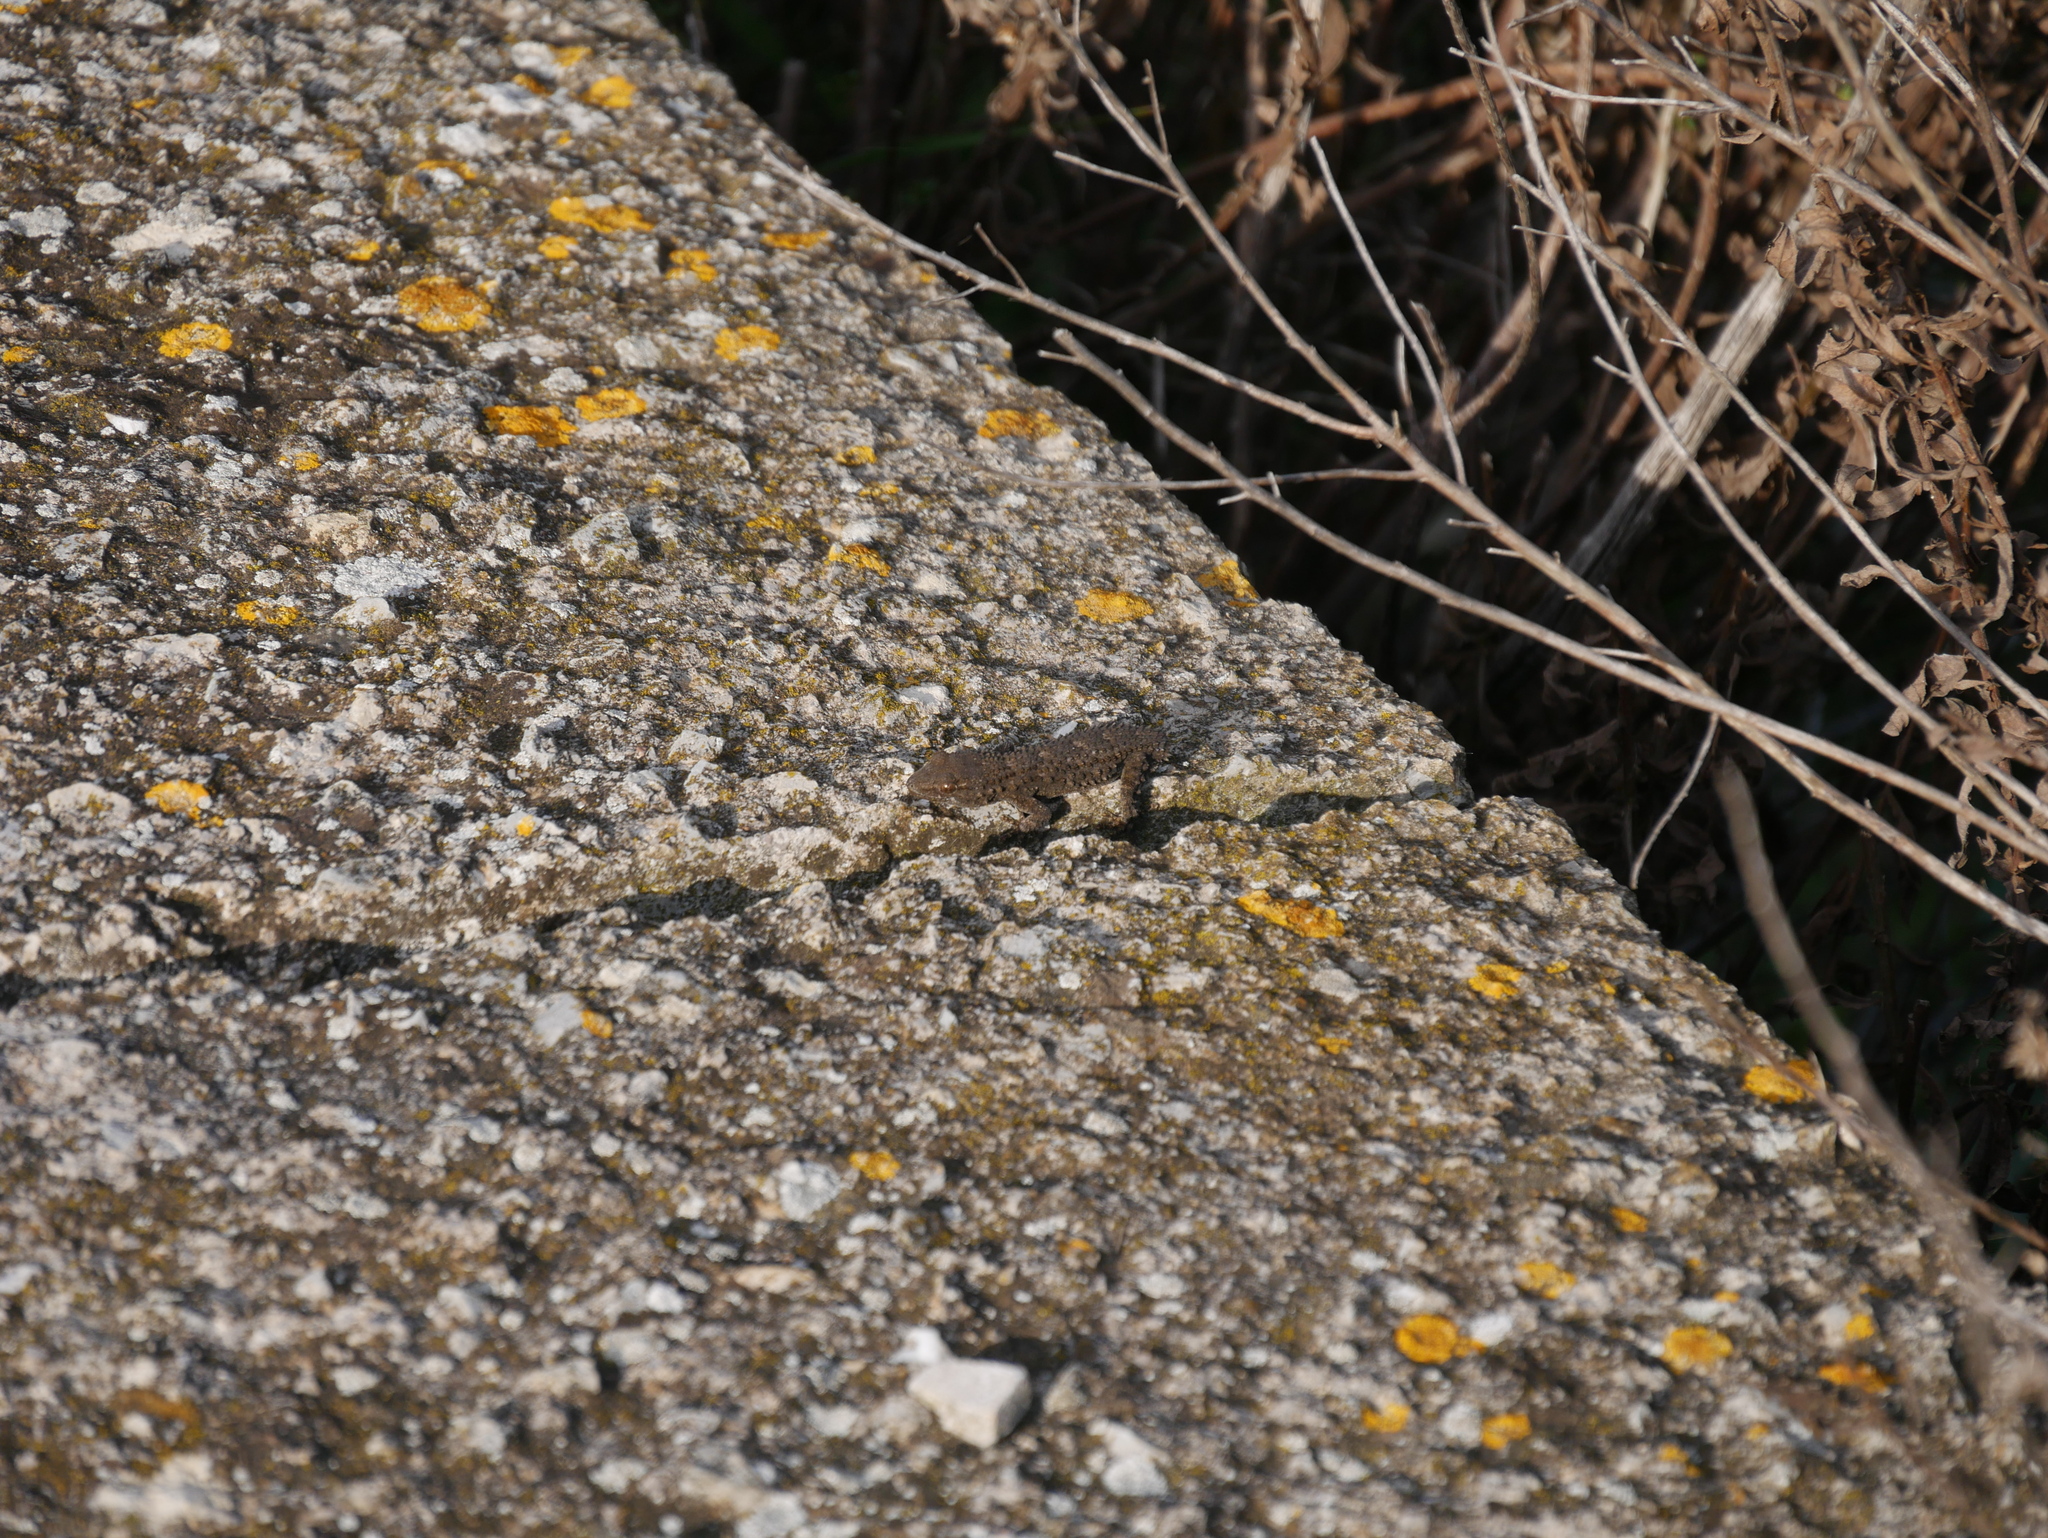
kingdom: Animalia
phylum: Chordata
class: Squamata
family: Phyllodactylidae
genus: Tarentola
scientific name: Tarentola mauritanica
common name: Moorish gecko
